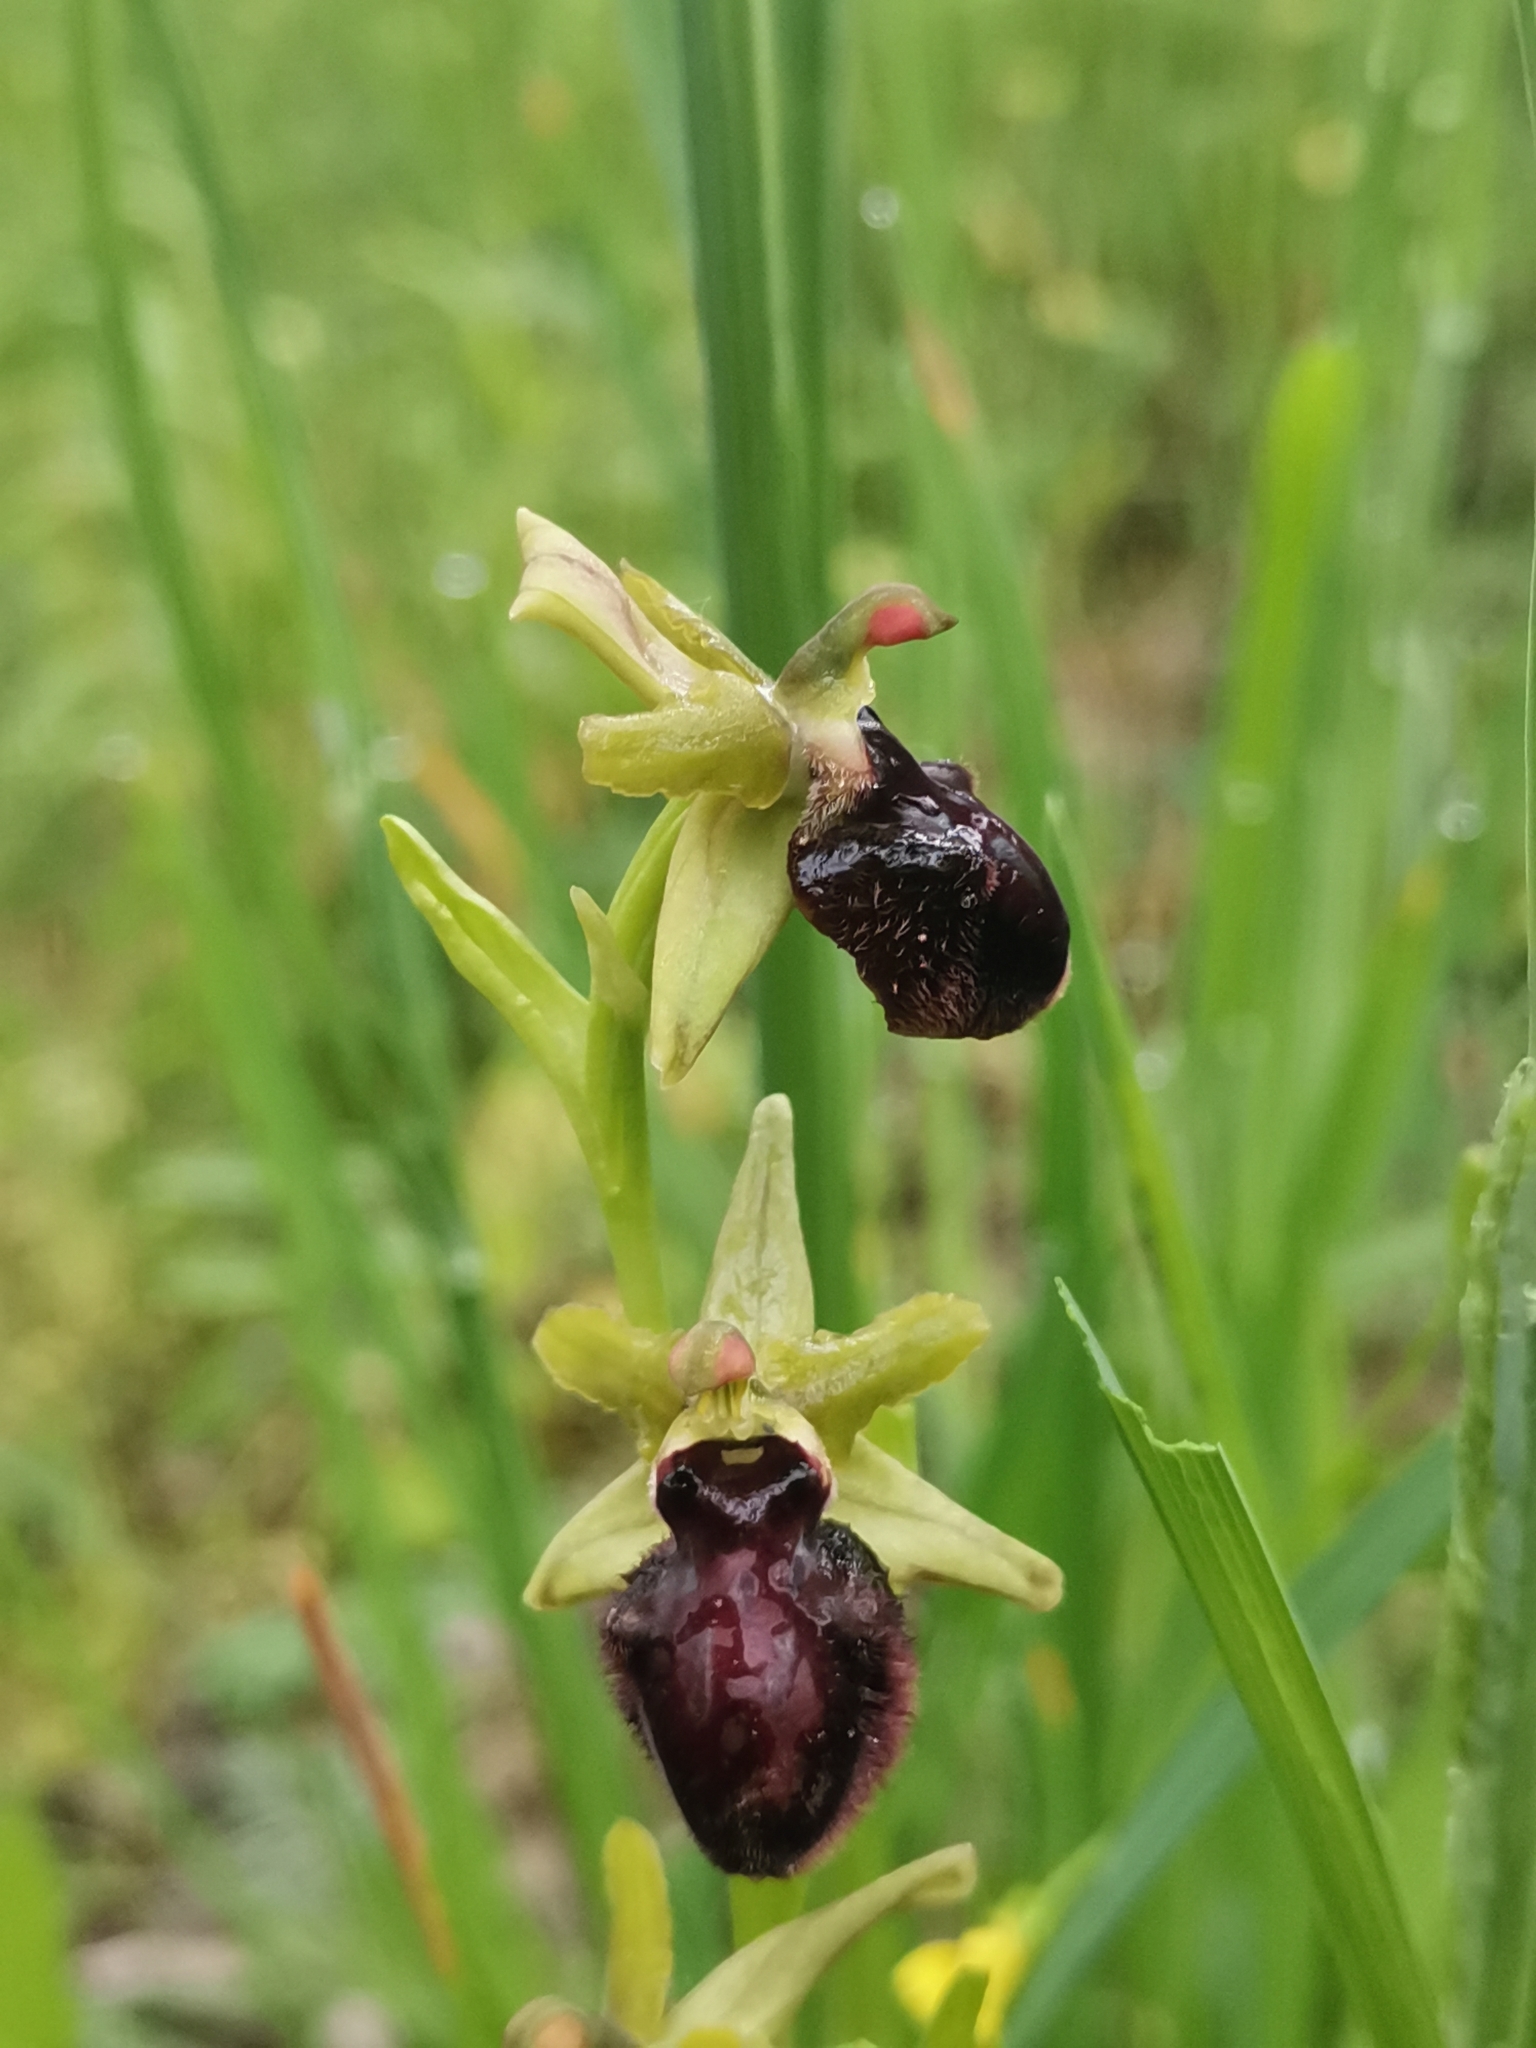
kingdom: Plantae
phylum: Tracheophyta
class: Liliopsida
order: Asparagales
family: Orchidaceae
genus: Ophrys
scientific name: Ophrys flavicans
